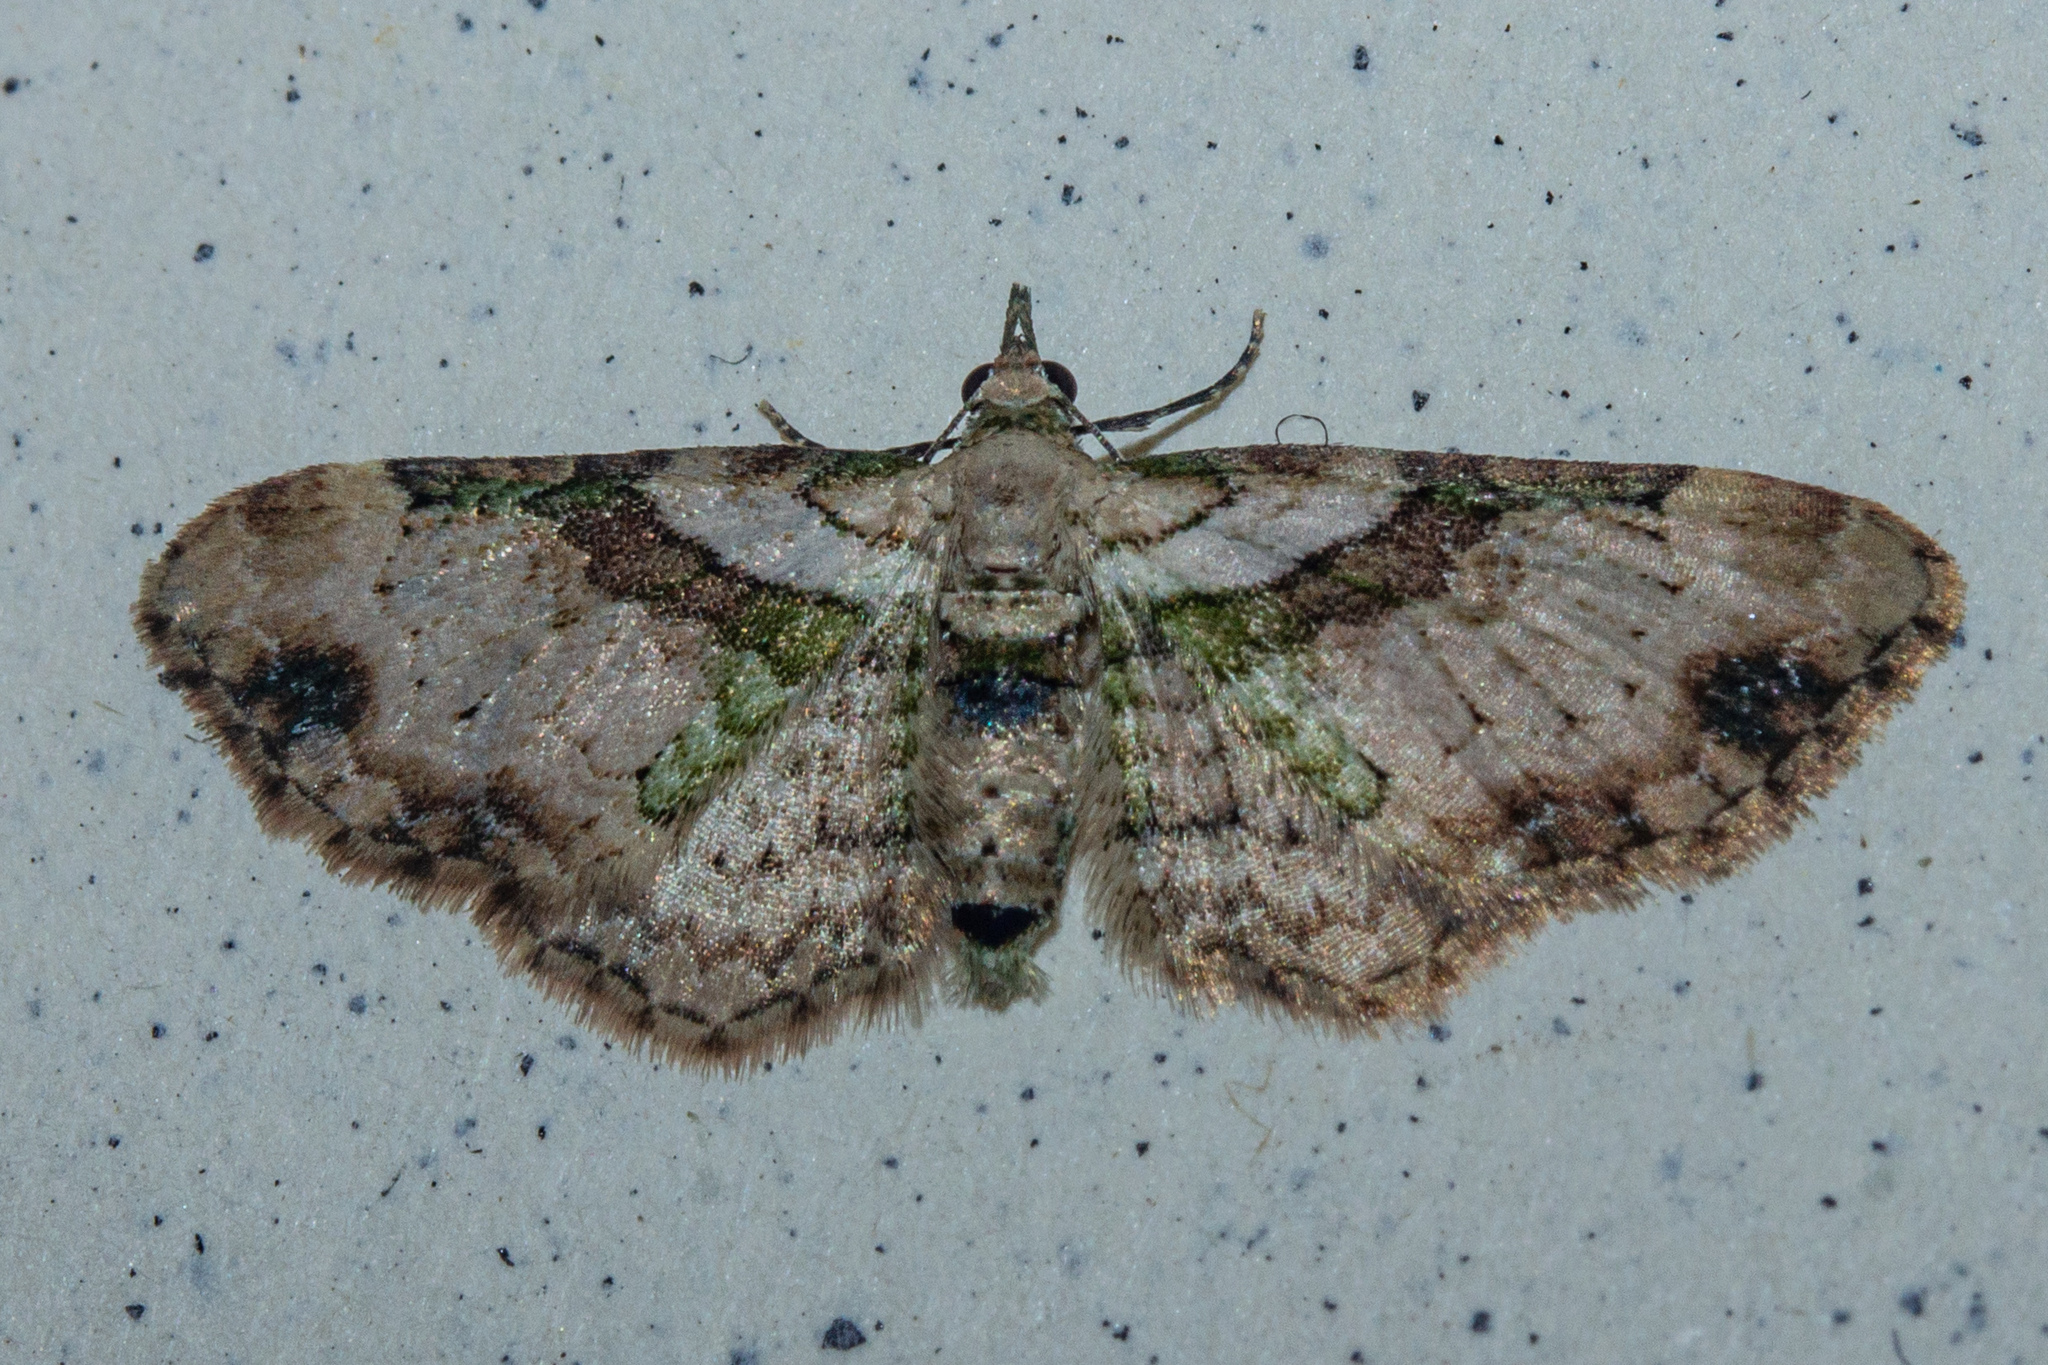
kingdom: Animalia
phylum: Arthropoda
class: Insecta
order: Lepidoptera
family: Geometridae
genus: Chloroclystis
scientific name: Chloroclystis
